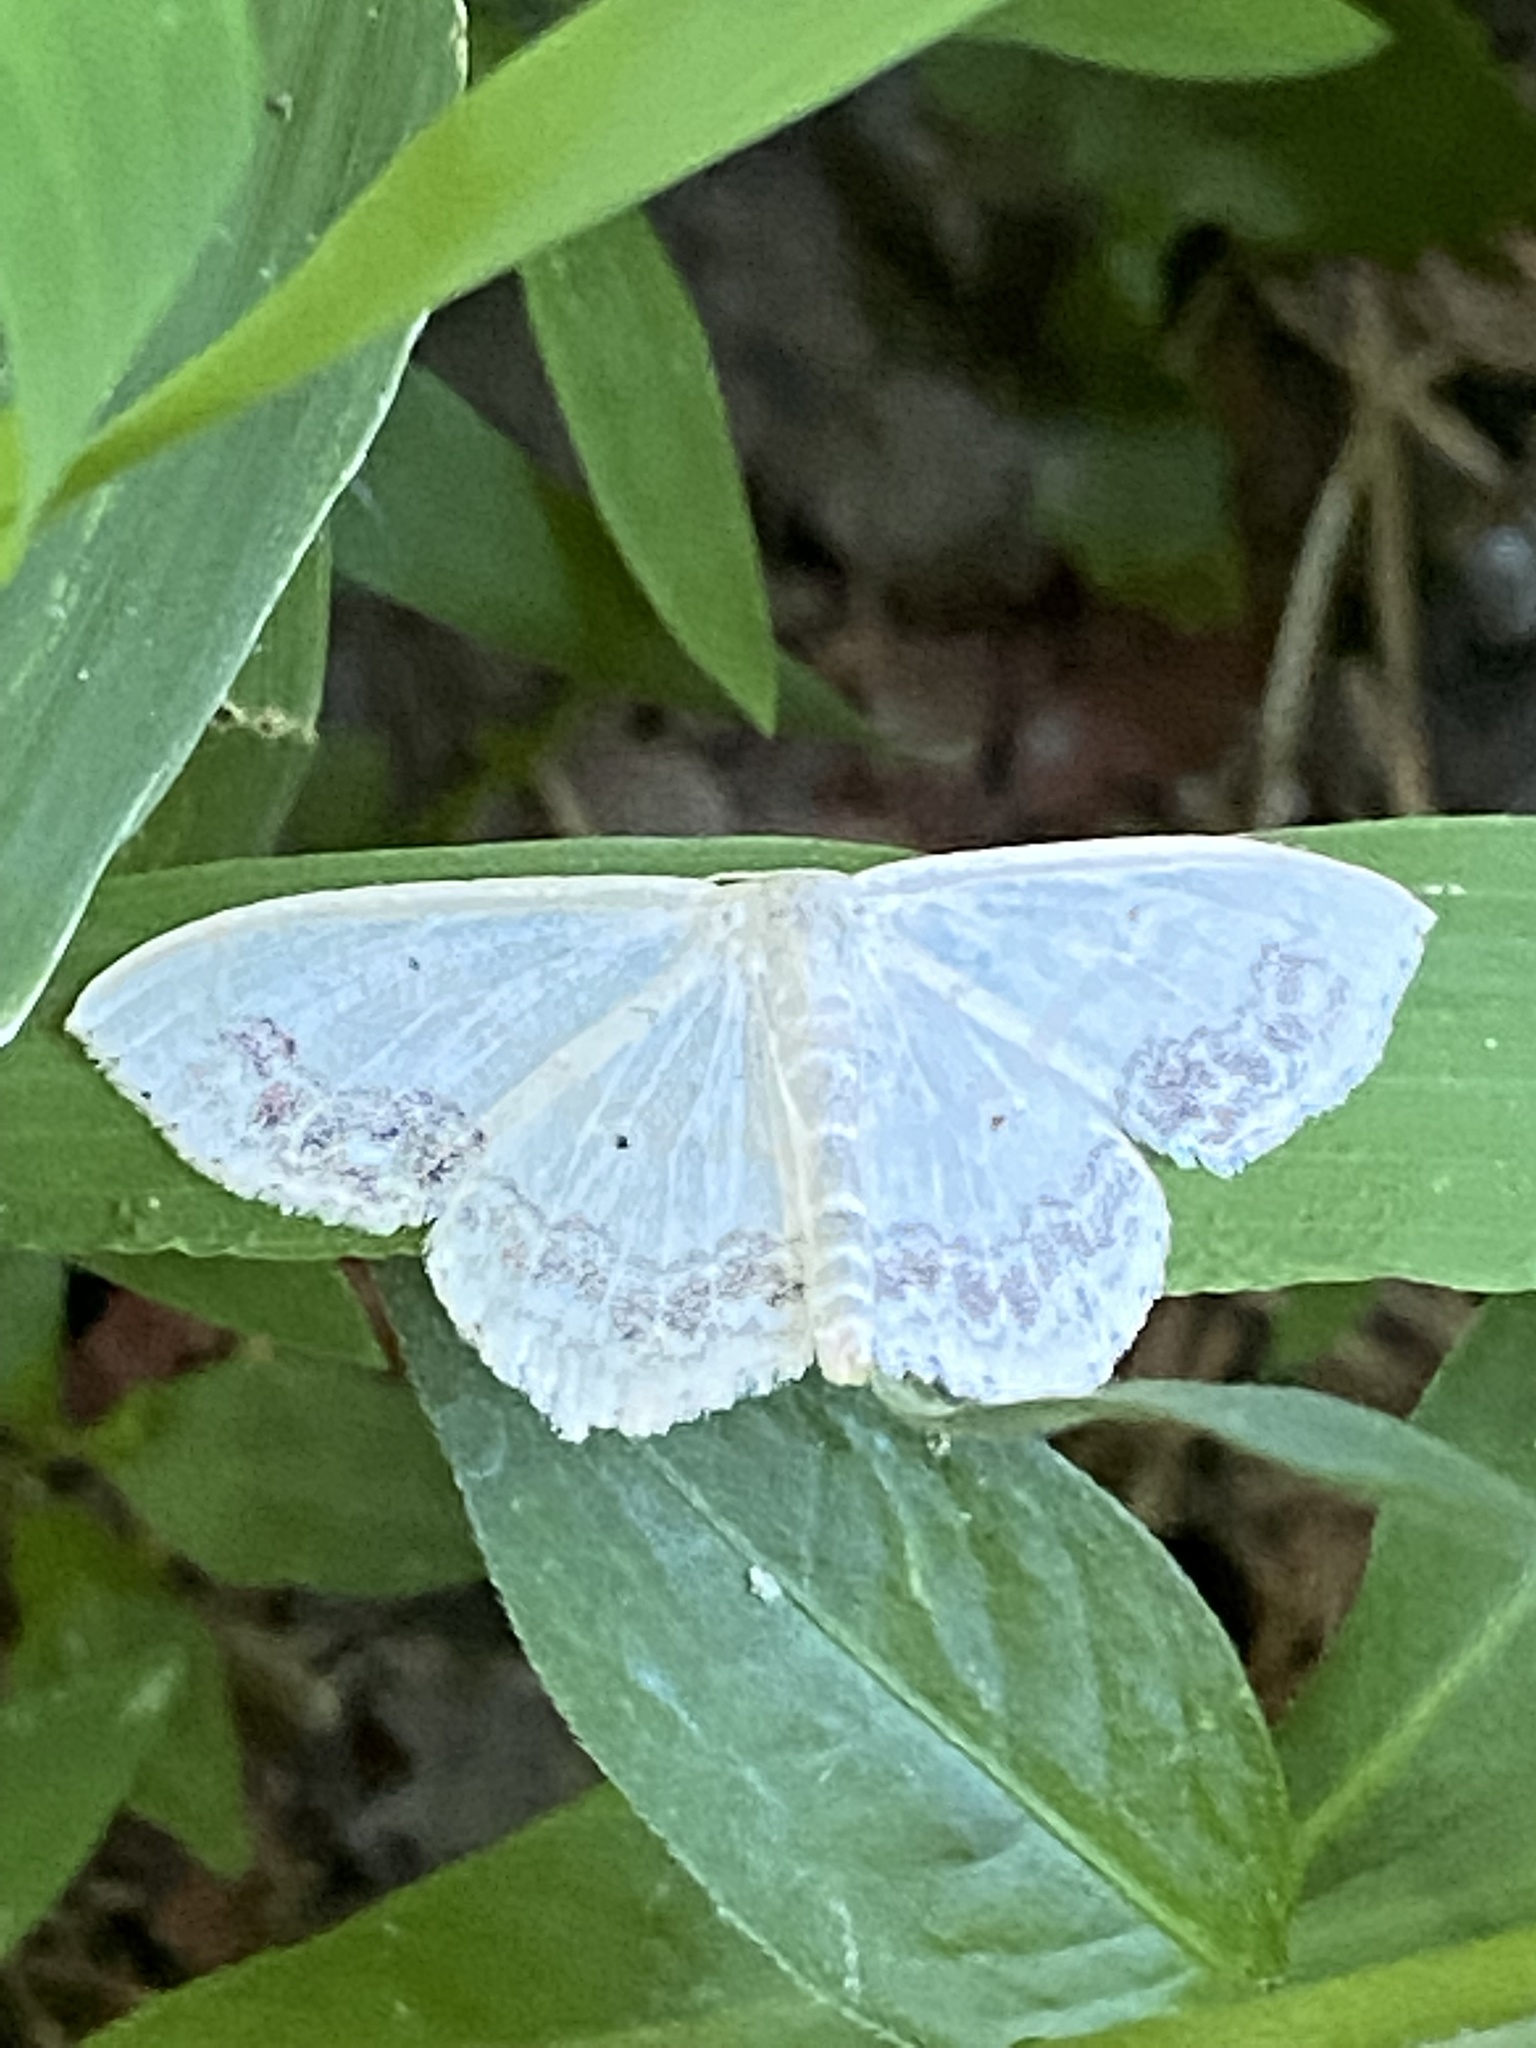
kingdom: Animalia
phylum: Arthropoda
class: Insecta
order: Lepidoptera
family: Geometridae
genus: Scopula
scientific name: Scopula limboundata
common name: Large lace border
